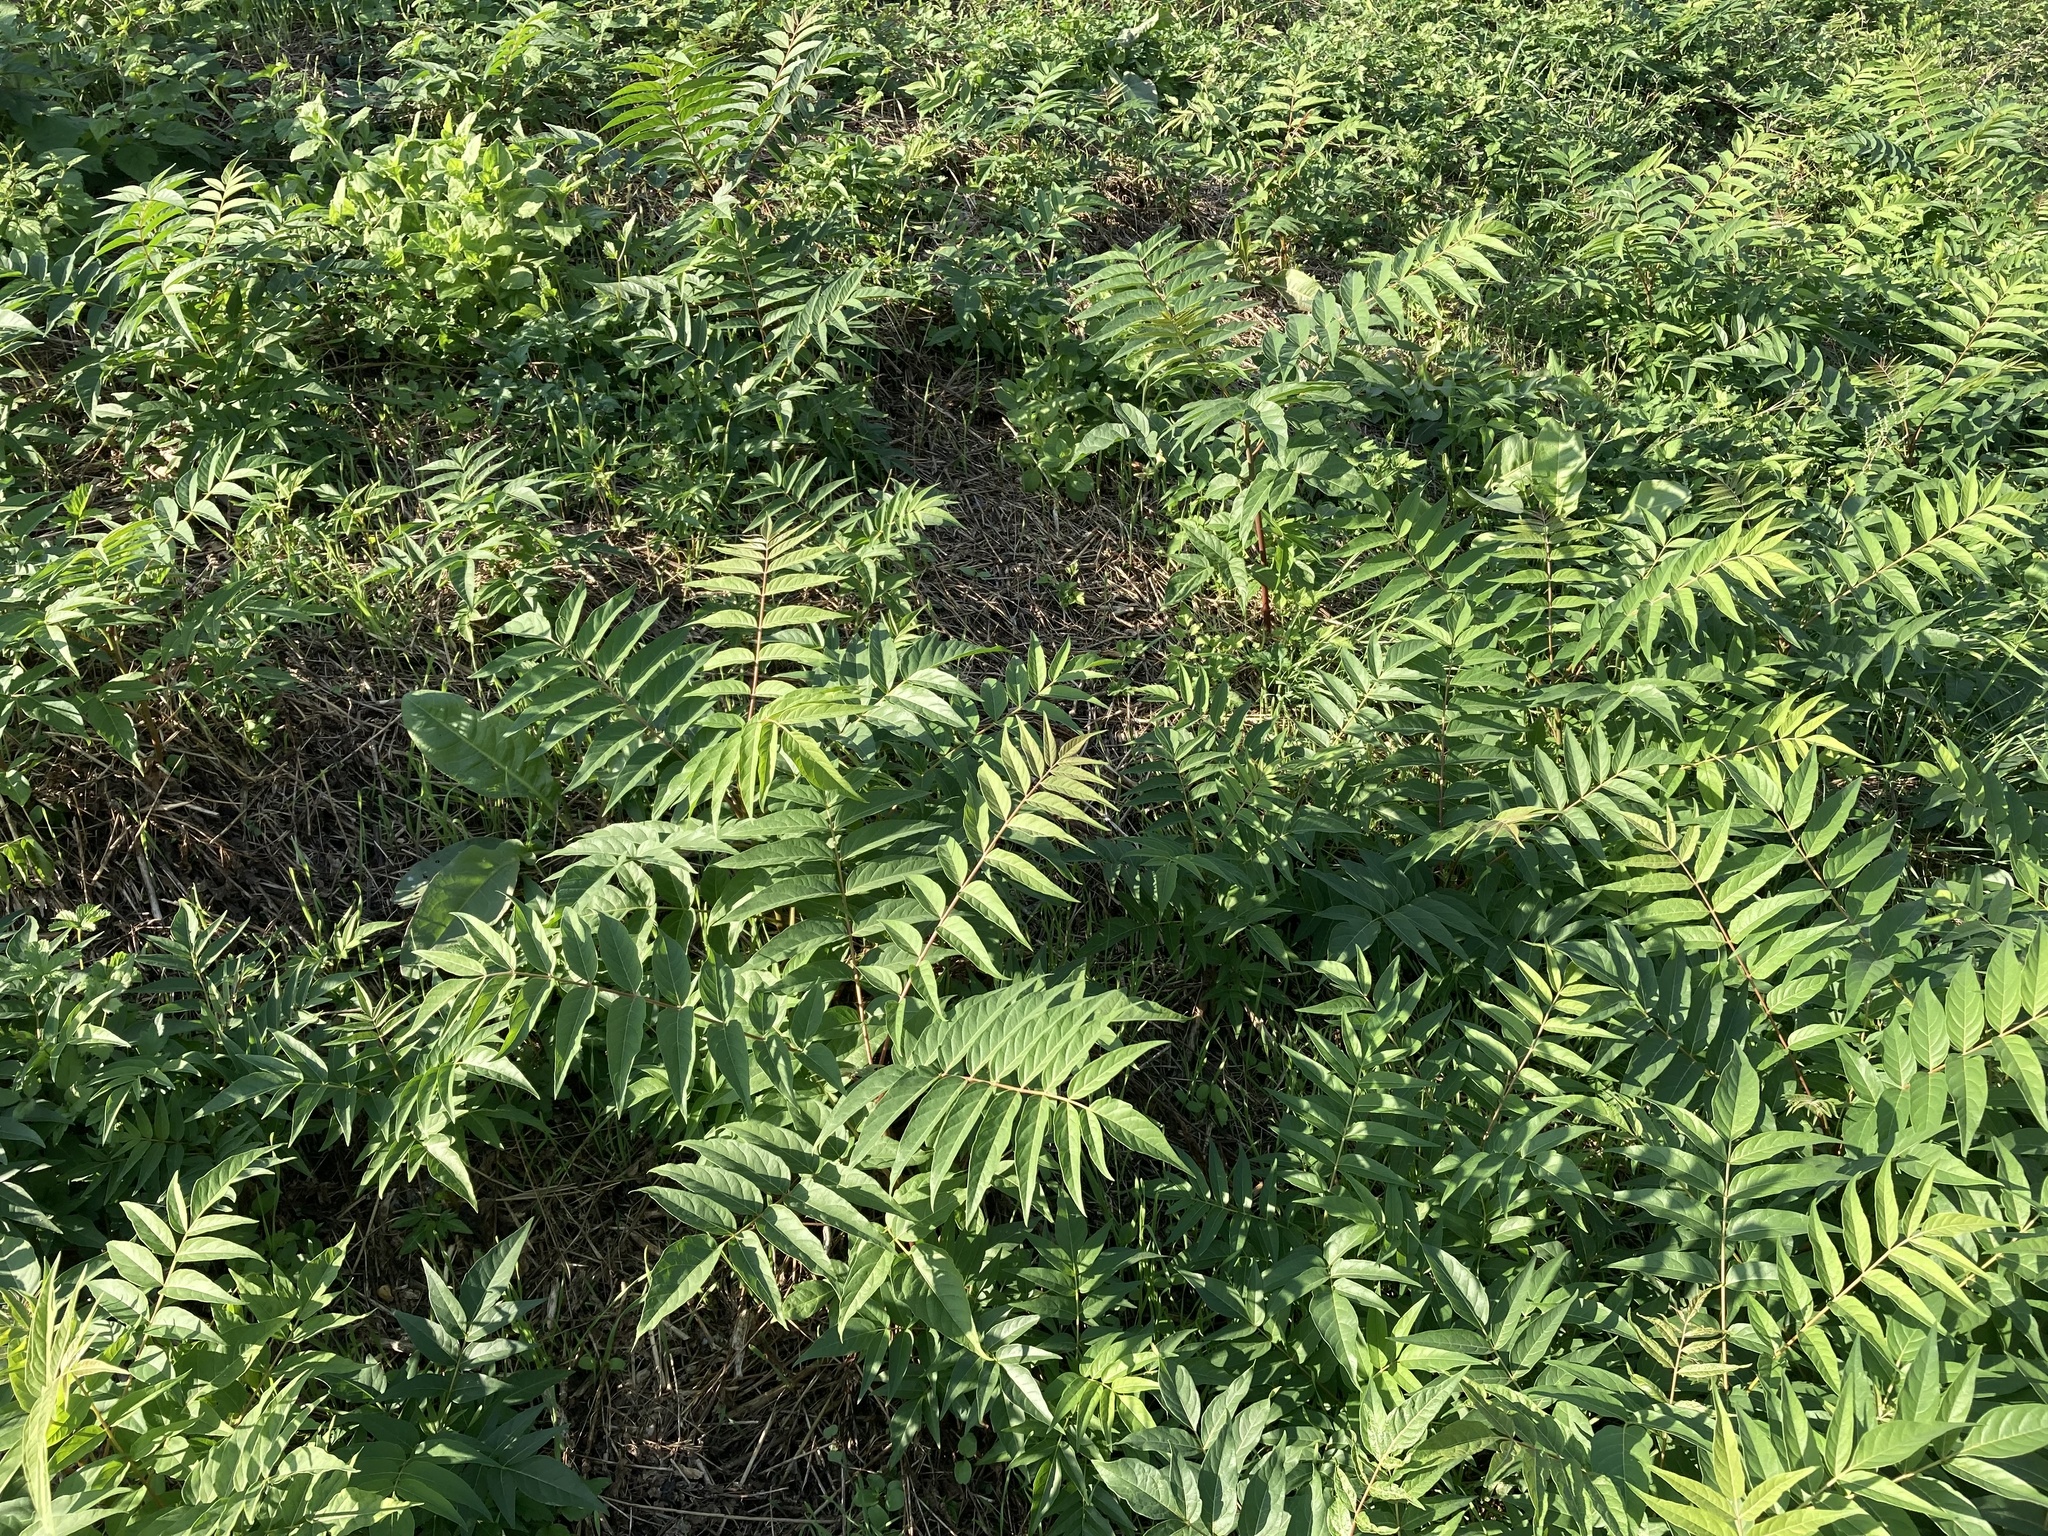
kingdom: Plantae
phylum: Tracheophyta
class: Magnoliopsida
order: Sapindales
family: Simaroubaceae
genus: Ailanthus
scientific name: Ailanthus altissima
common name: Tree-of-heaven
